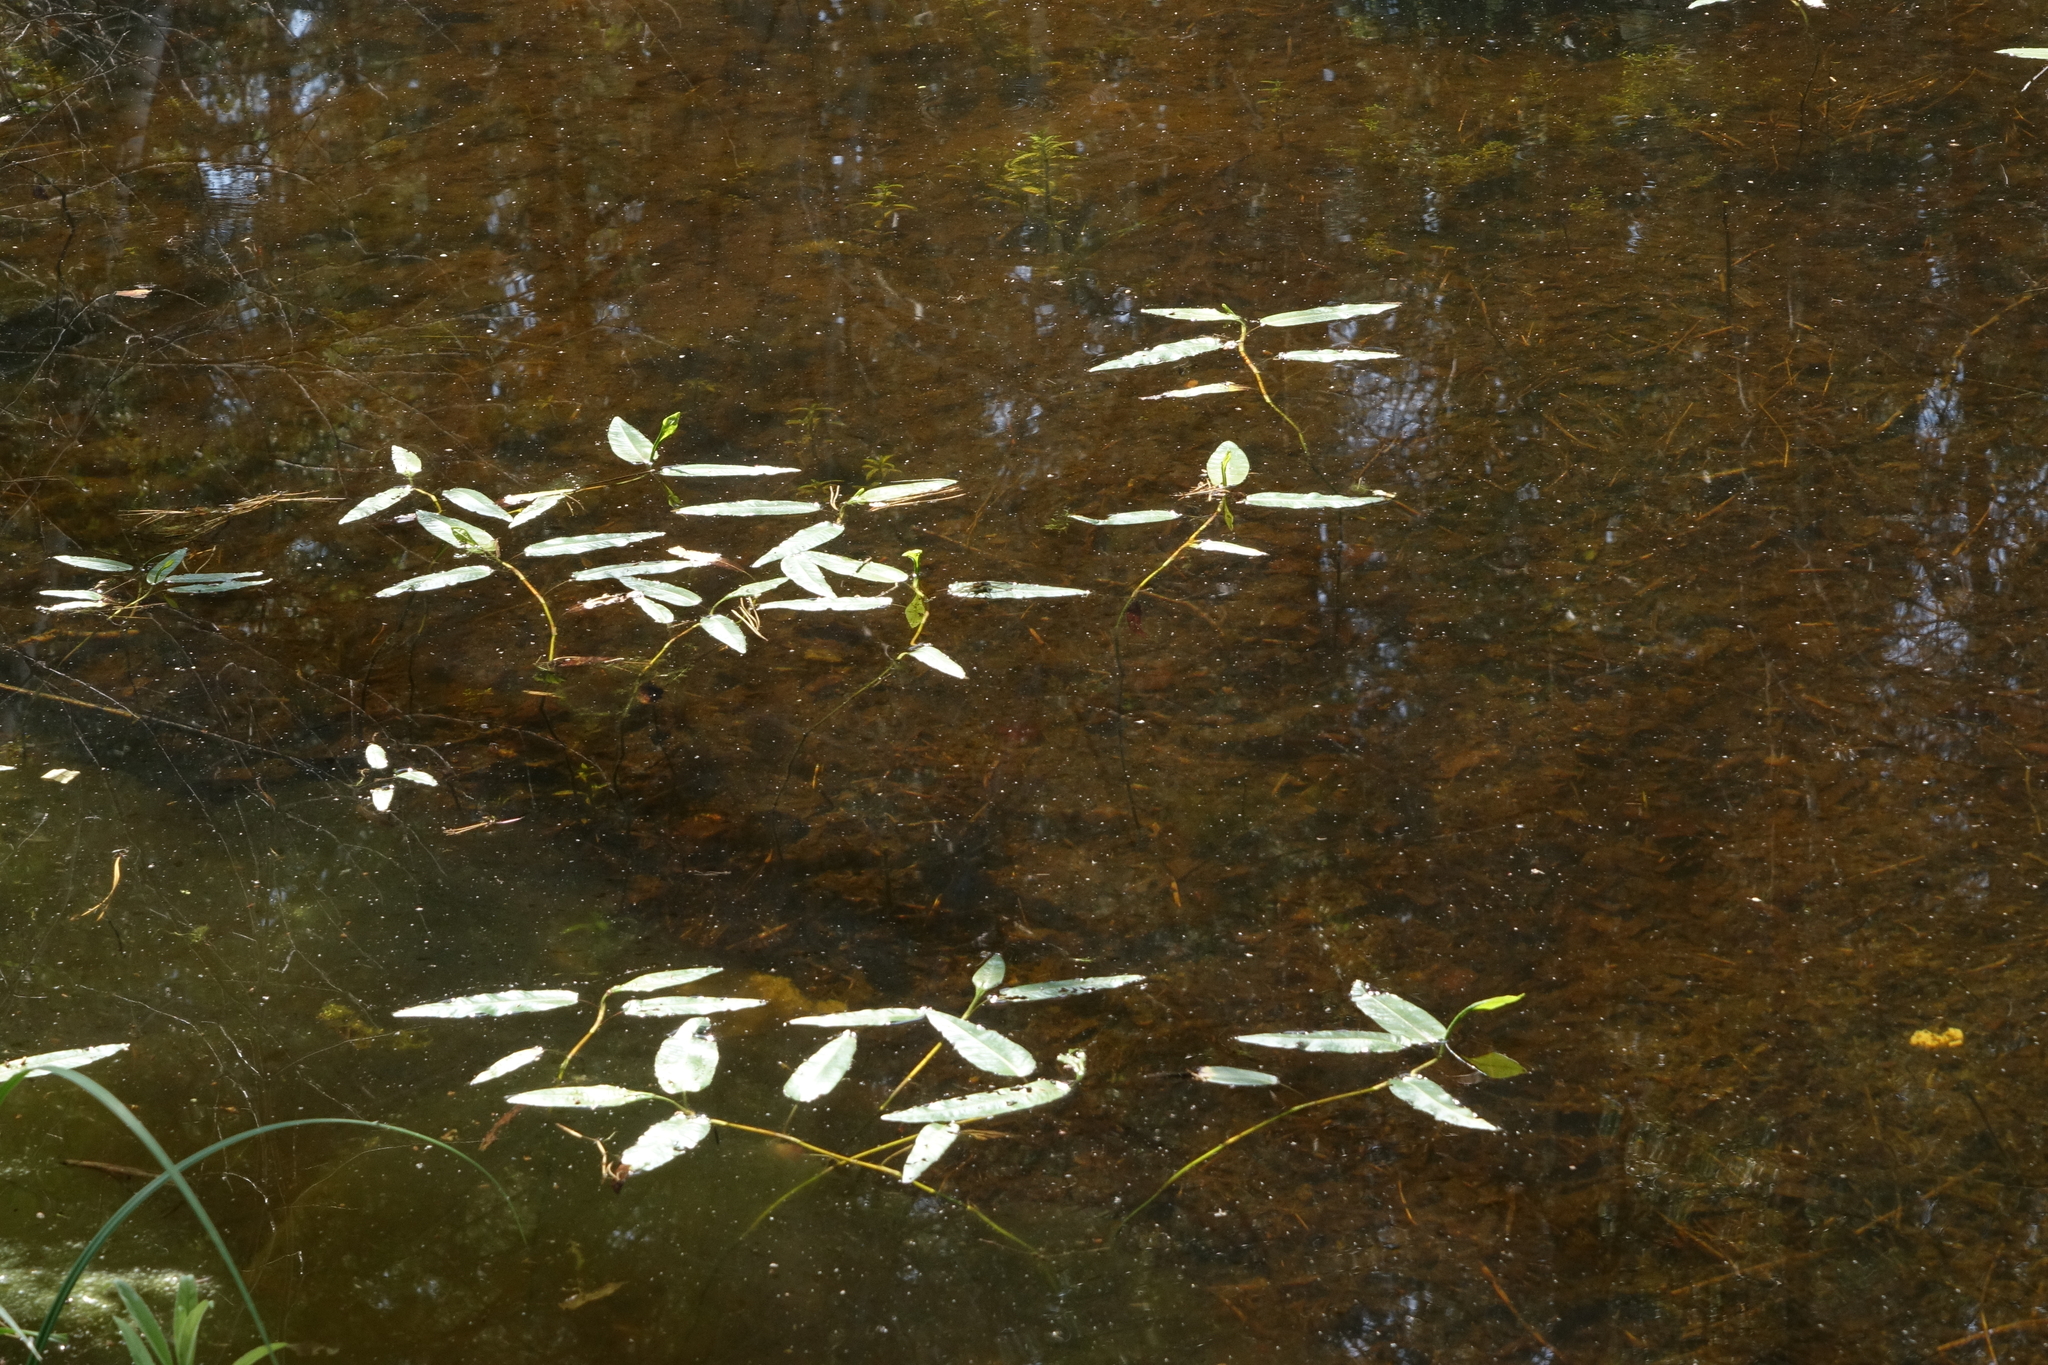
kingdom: Plantae
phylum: Tracheophyta
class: Magnoliopsida
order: Caryophyllales
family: Polygonaceae
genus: Persicaria
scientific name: Persicaria amphibia
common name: Amphibious bistort
